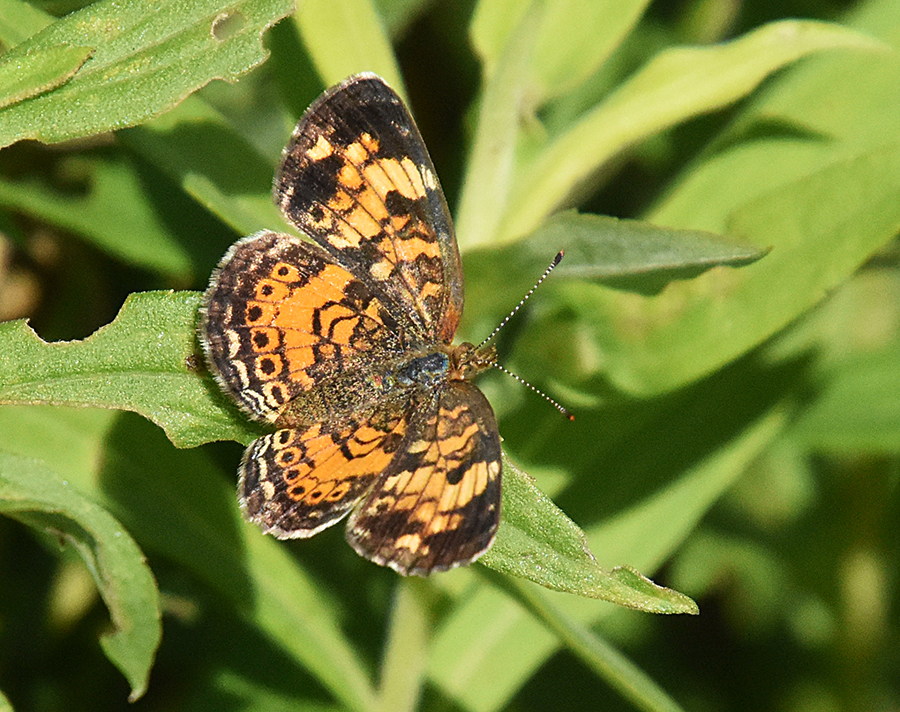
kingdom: Animalia
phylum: Arthropoda
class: Insecta
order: Lepidoptera
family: Nymphalidae
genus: Phyciodes
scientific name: Phyciodes tharos
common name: Pearl crescent
